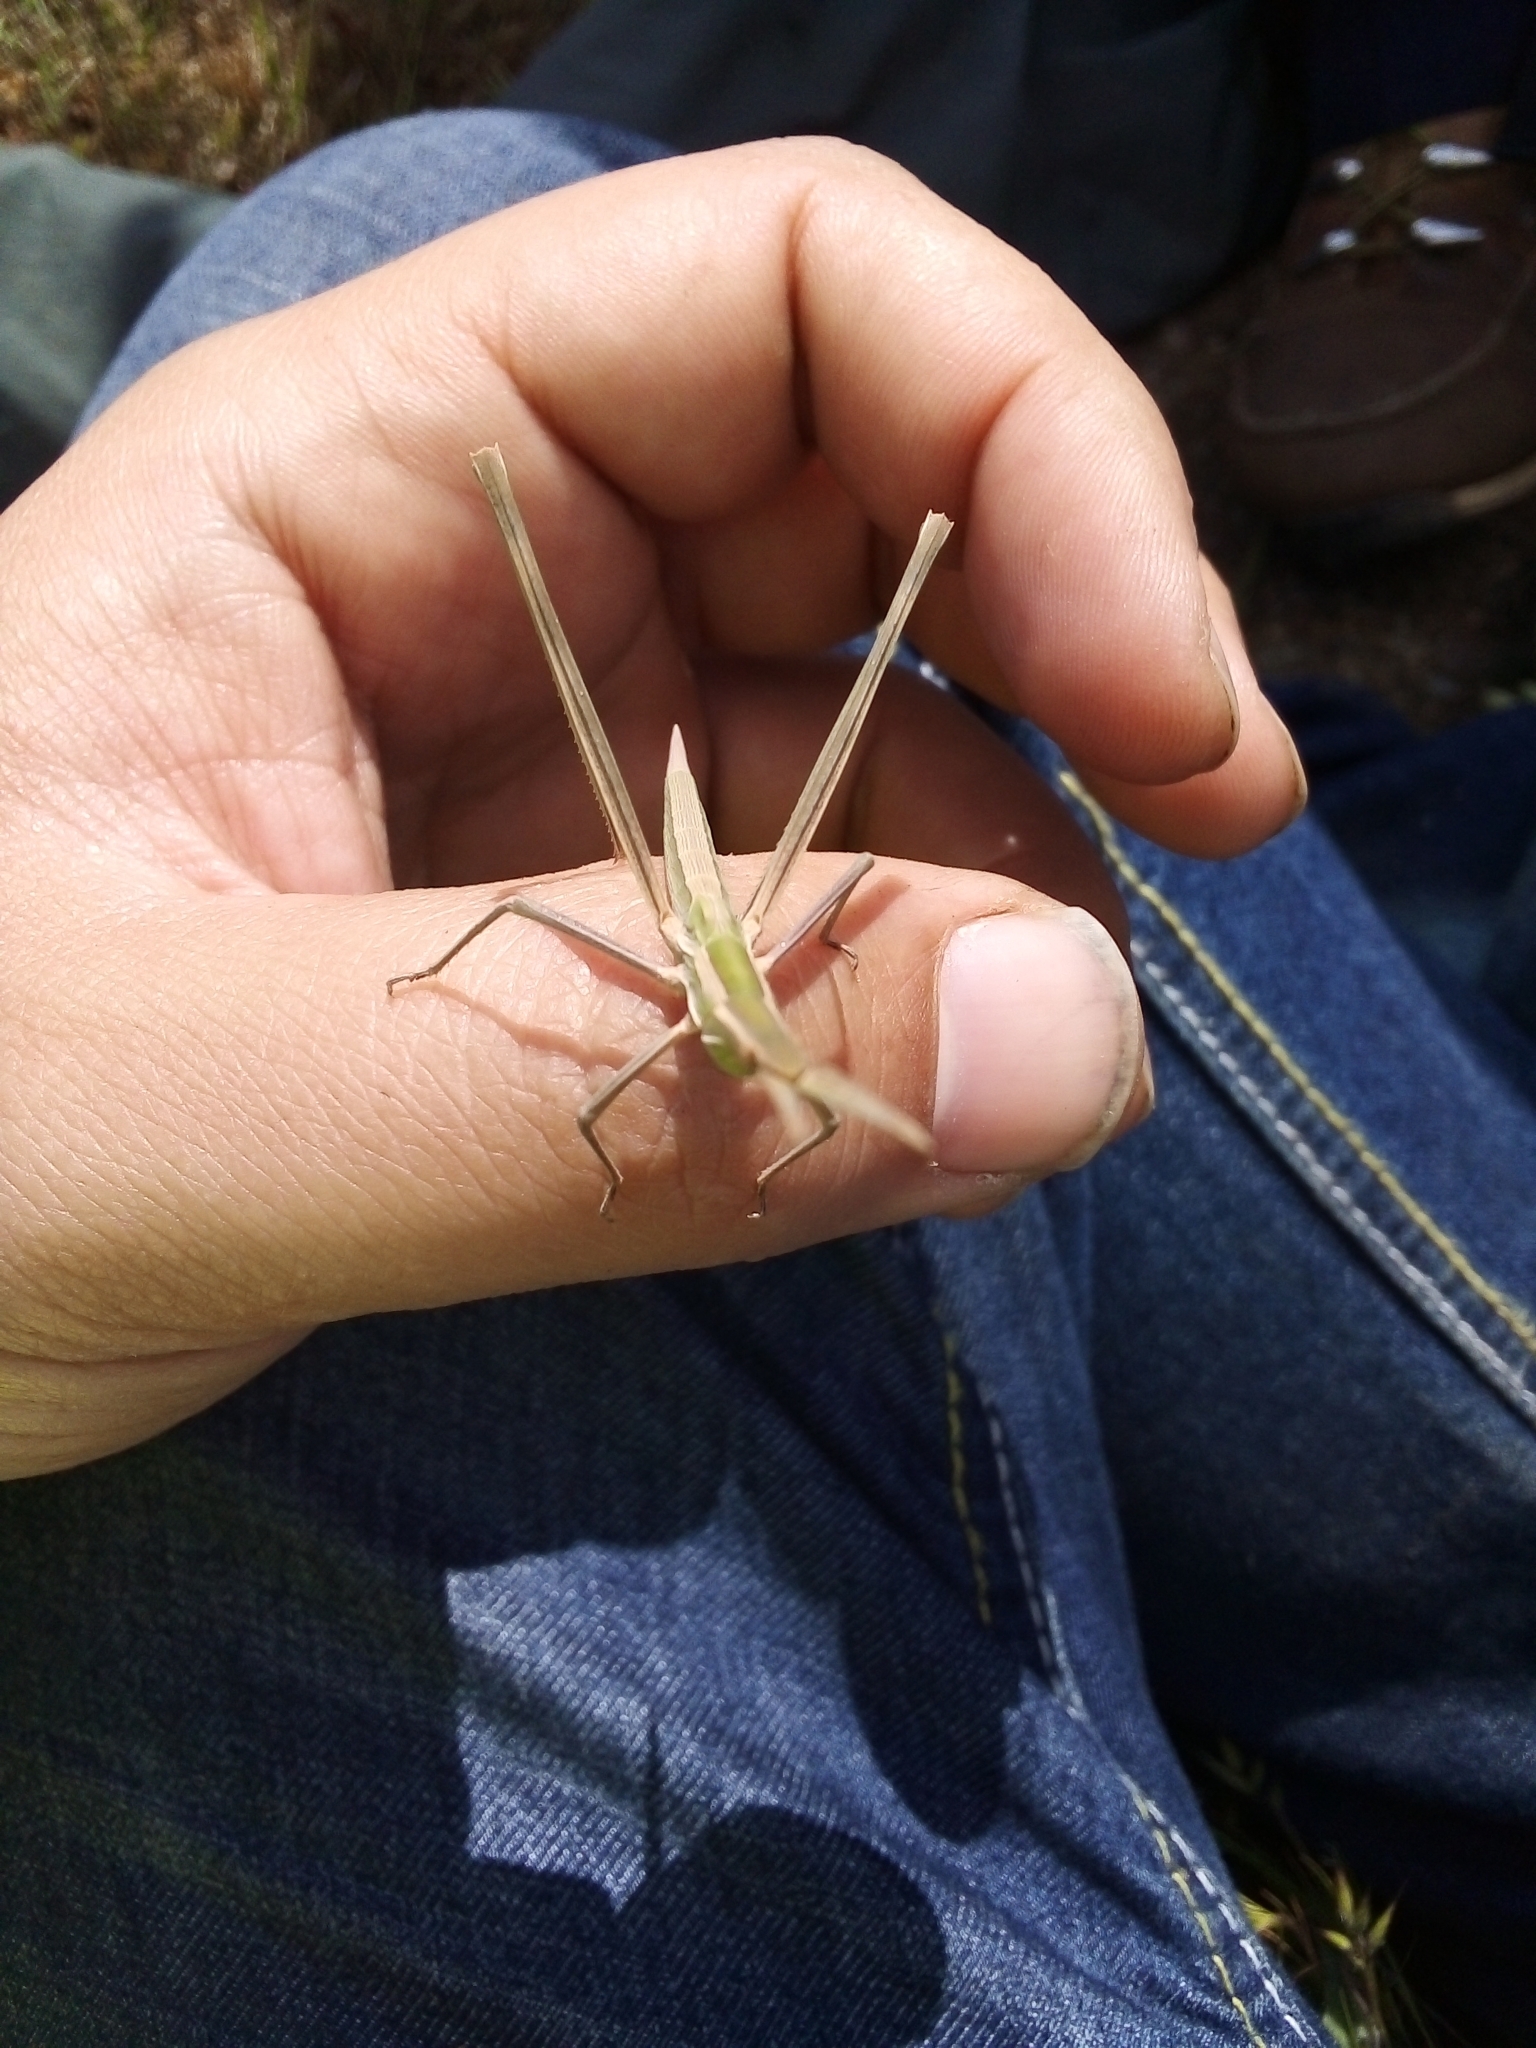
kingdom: Animalia
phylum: Arthropoda
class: Insecta
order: Orthoptera
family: Acrididae
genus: Truxalis
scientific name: Truxalis nasuta
